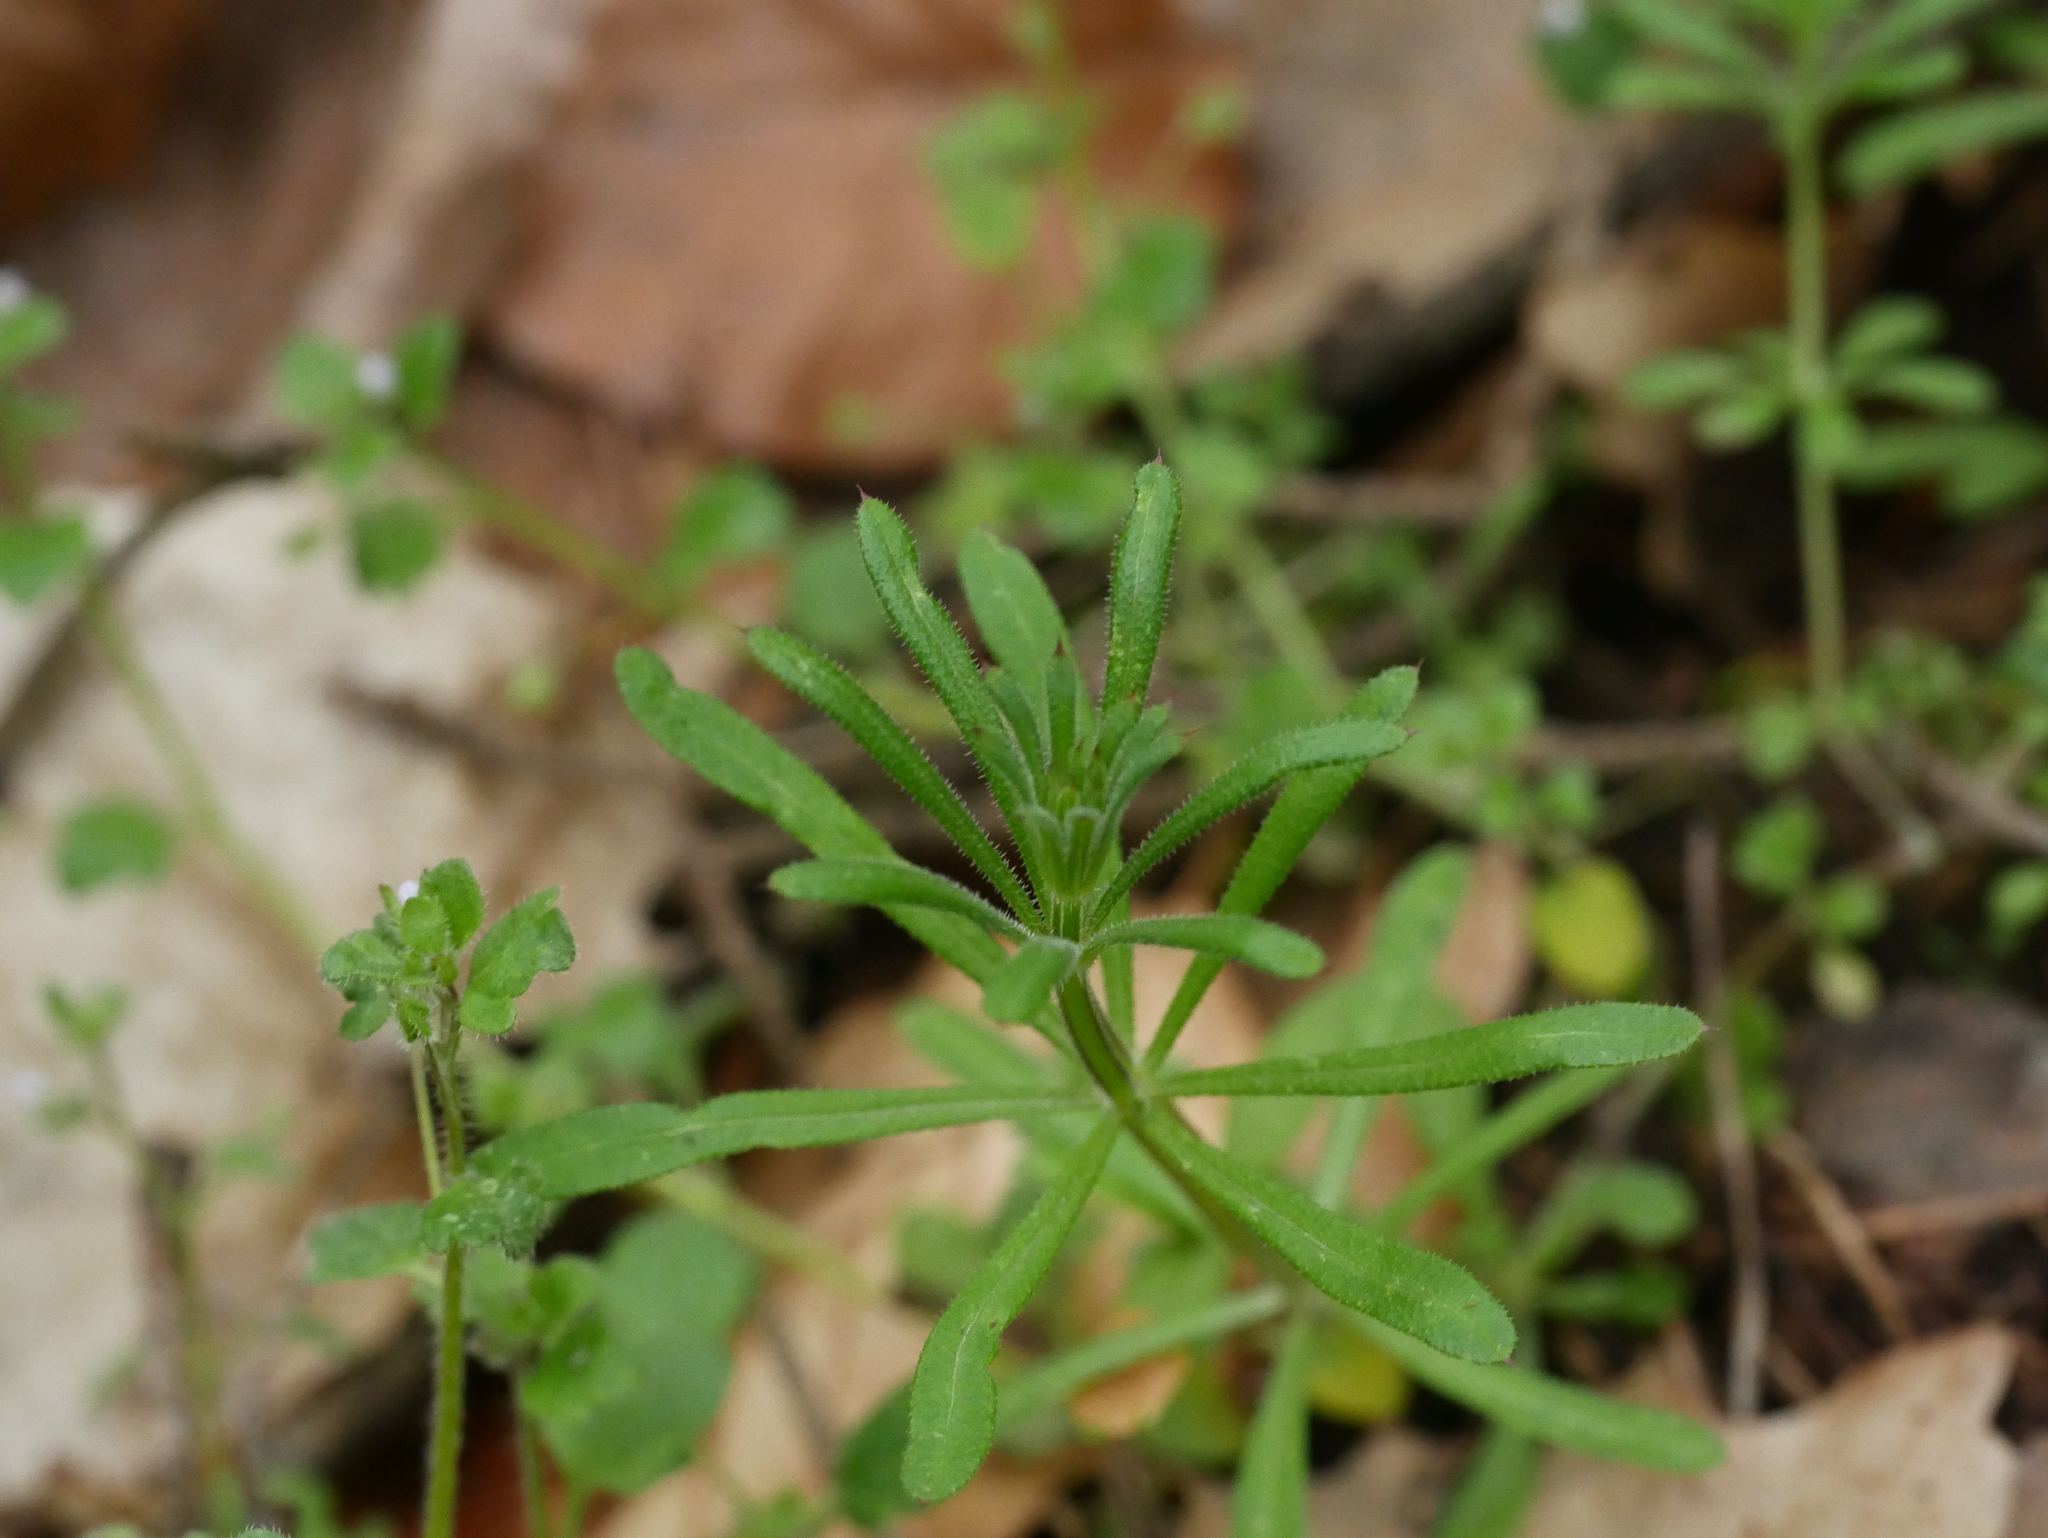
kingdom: Plantae
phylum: Tracheophyta
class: Magnoliopsida
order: Gentianales
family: Rubiaceae
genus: Galium
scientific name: Galium aparine
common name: Cleavers
